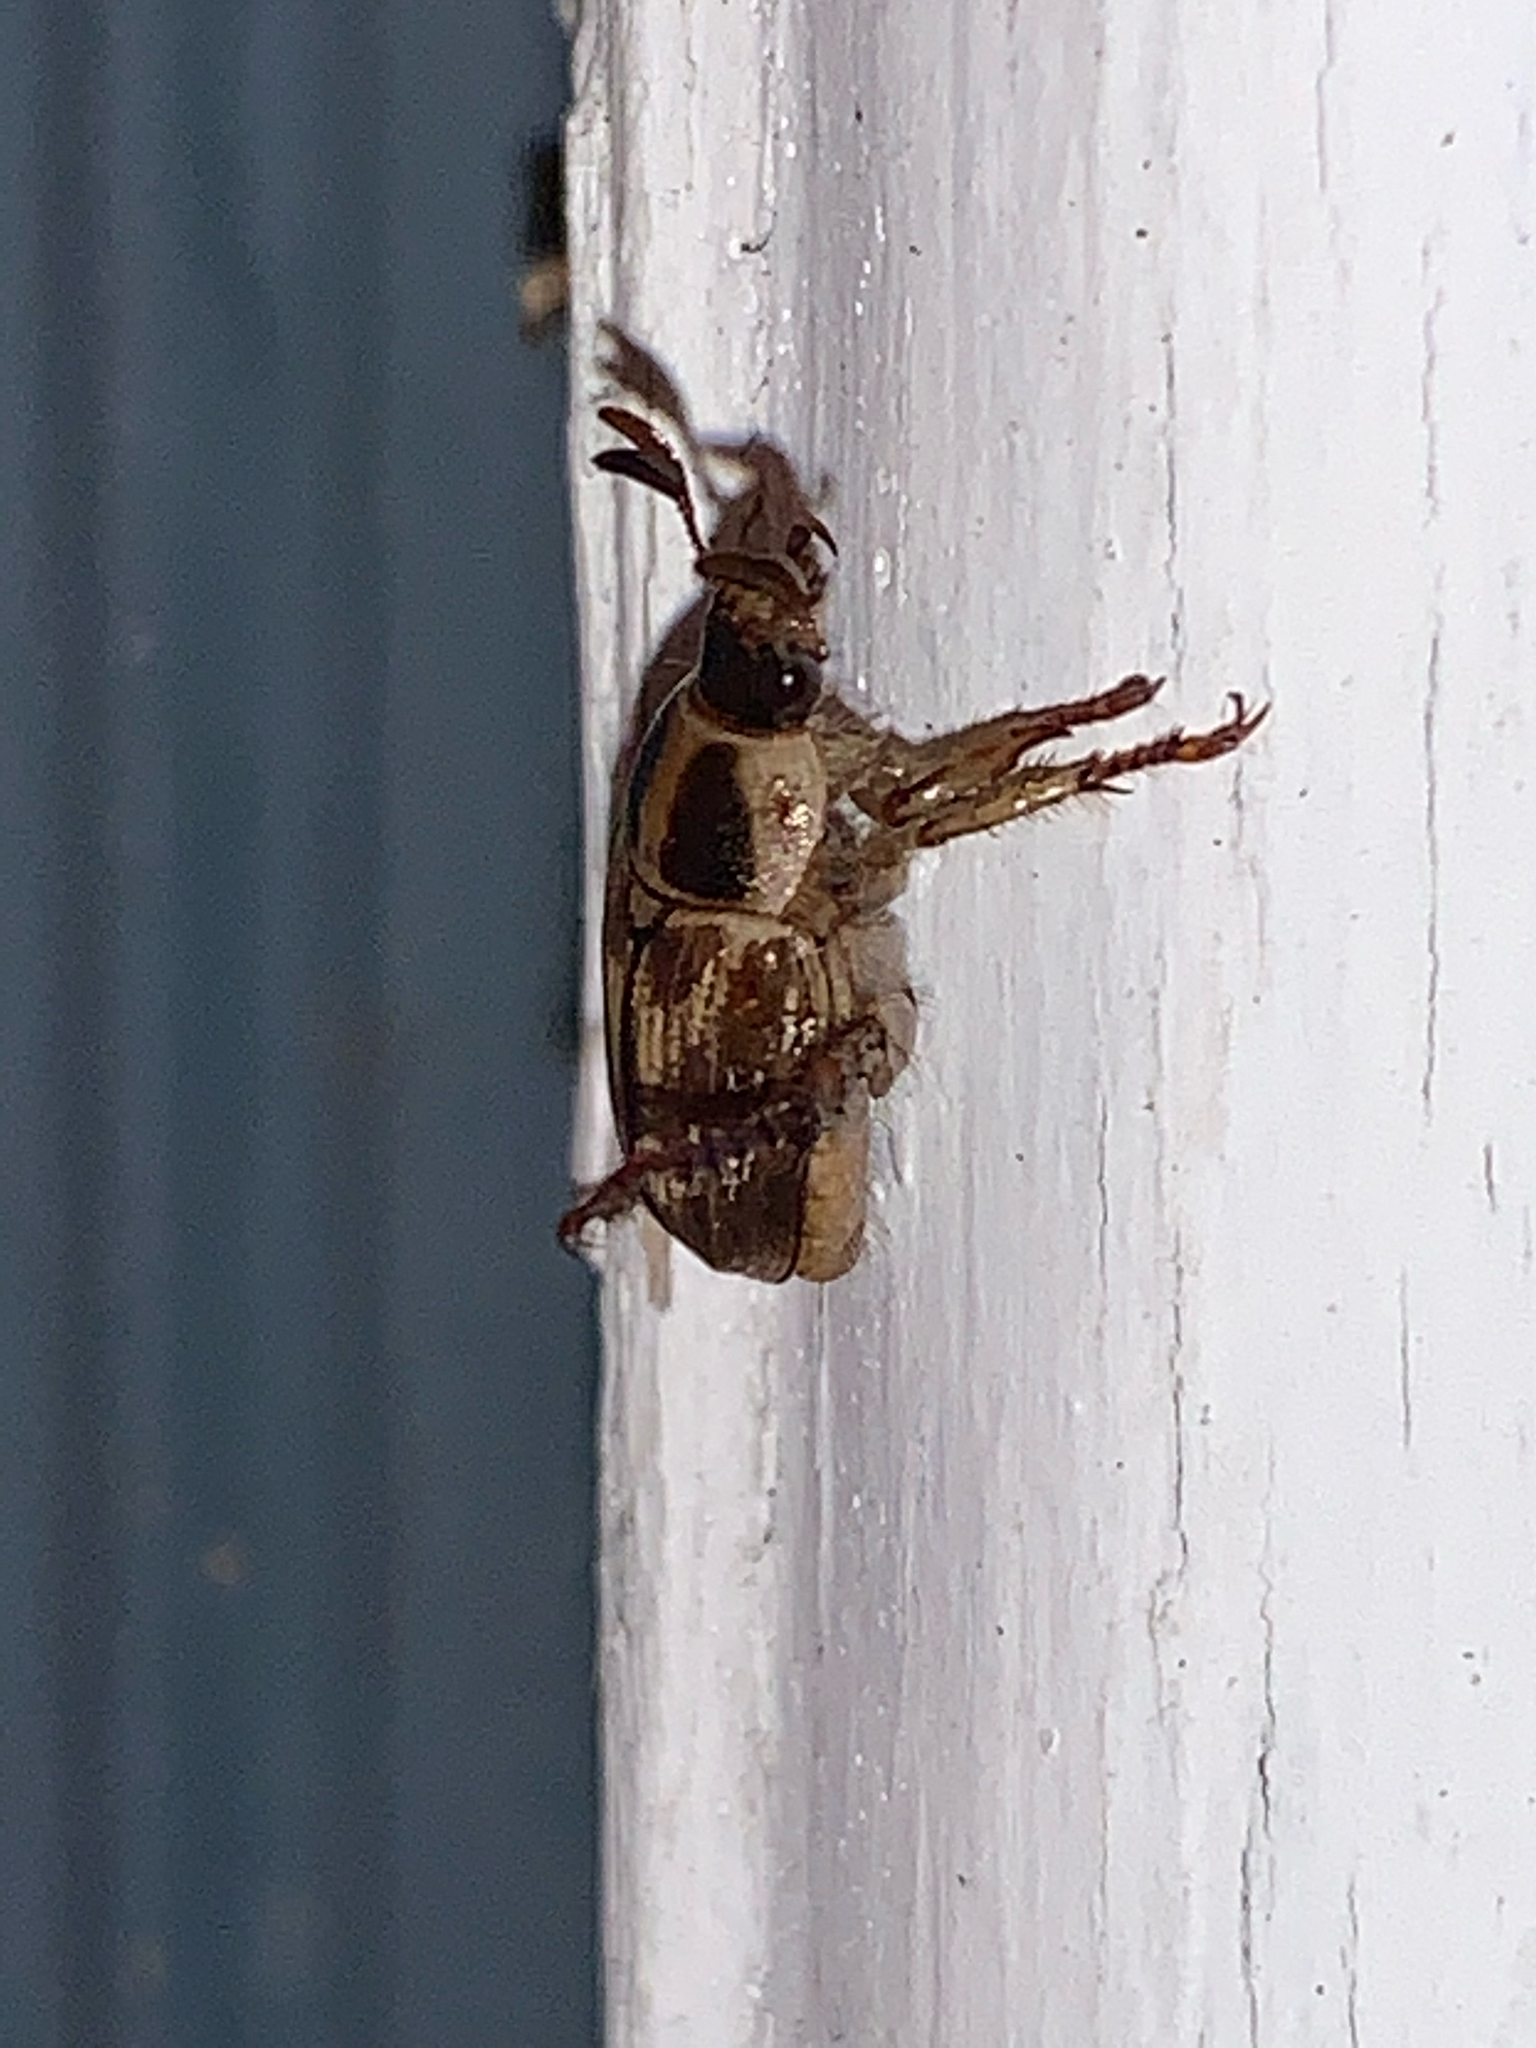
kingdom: Animalia
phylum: Arthropoda
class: Insecta
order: Coleoptera
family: Scarabaeidae
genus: Exomala
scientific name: Exomala orientalis
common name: Oriental beetle
